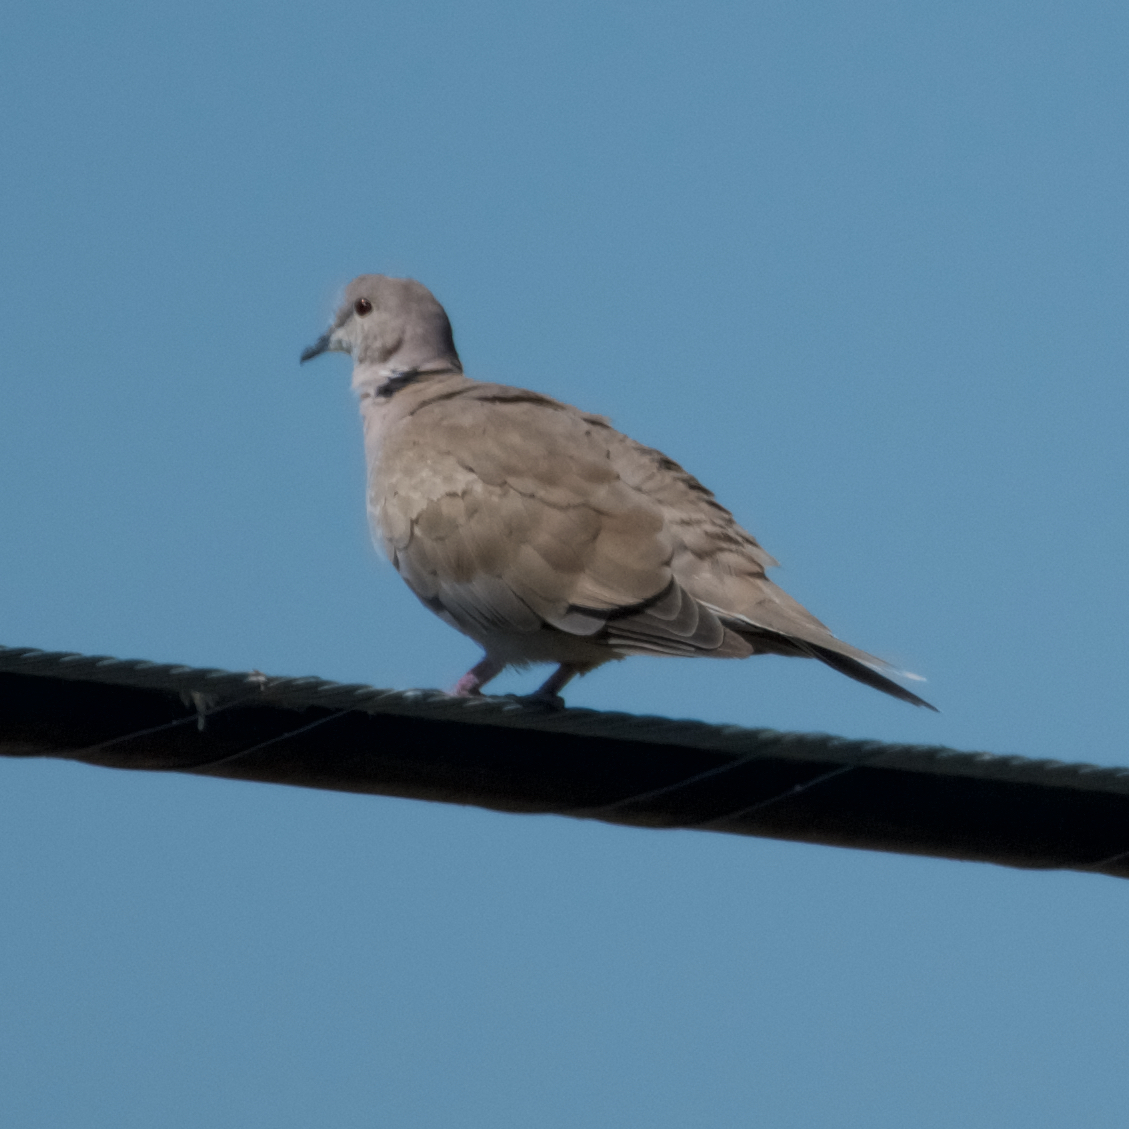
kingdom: Animalia
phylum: Chordata
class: Aves
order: Columbiformes
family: Columbidae
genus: Streptopelia
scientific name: Streptopelia decaocto
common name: Eurasian collared dove
